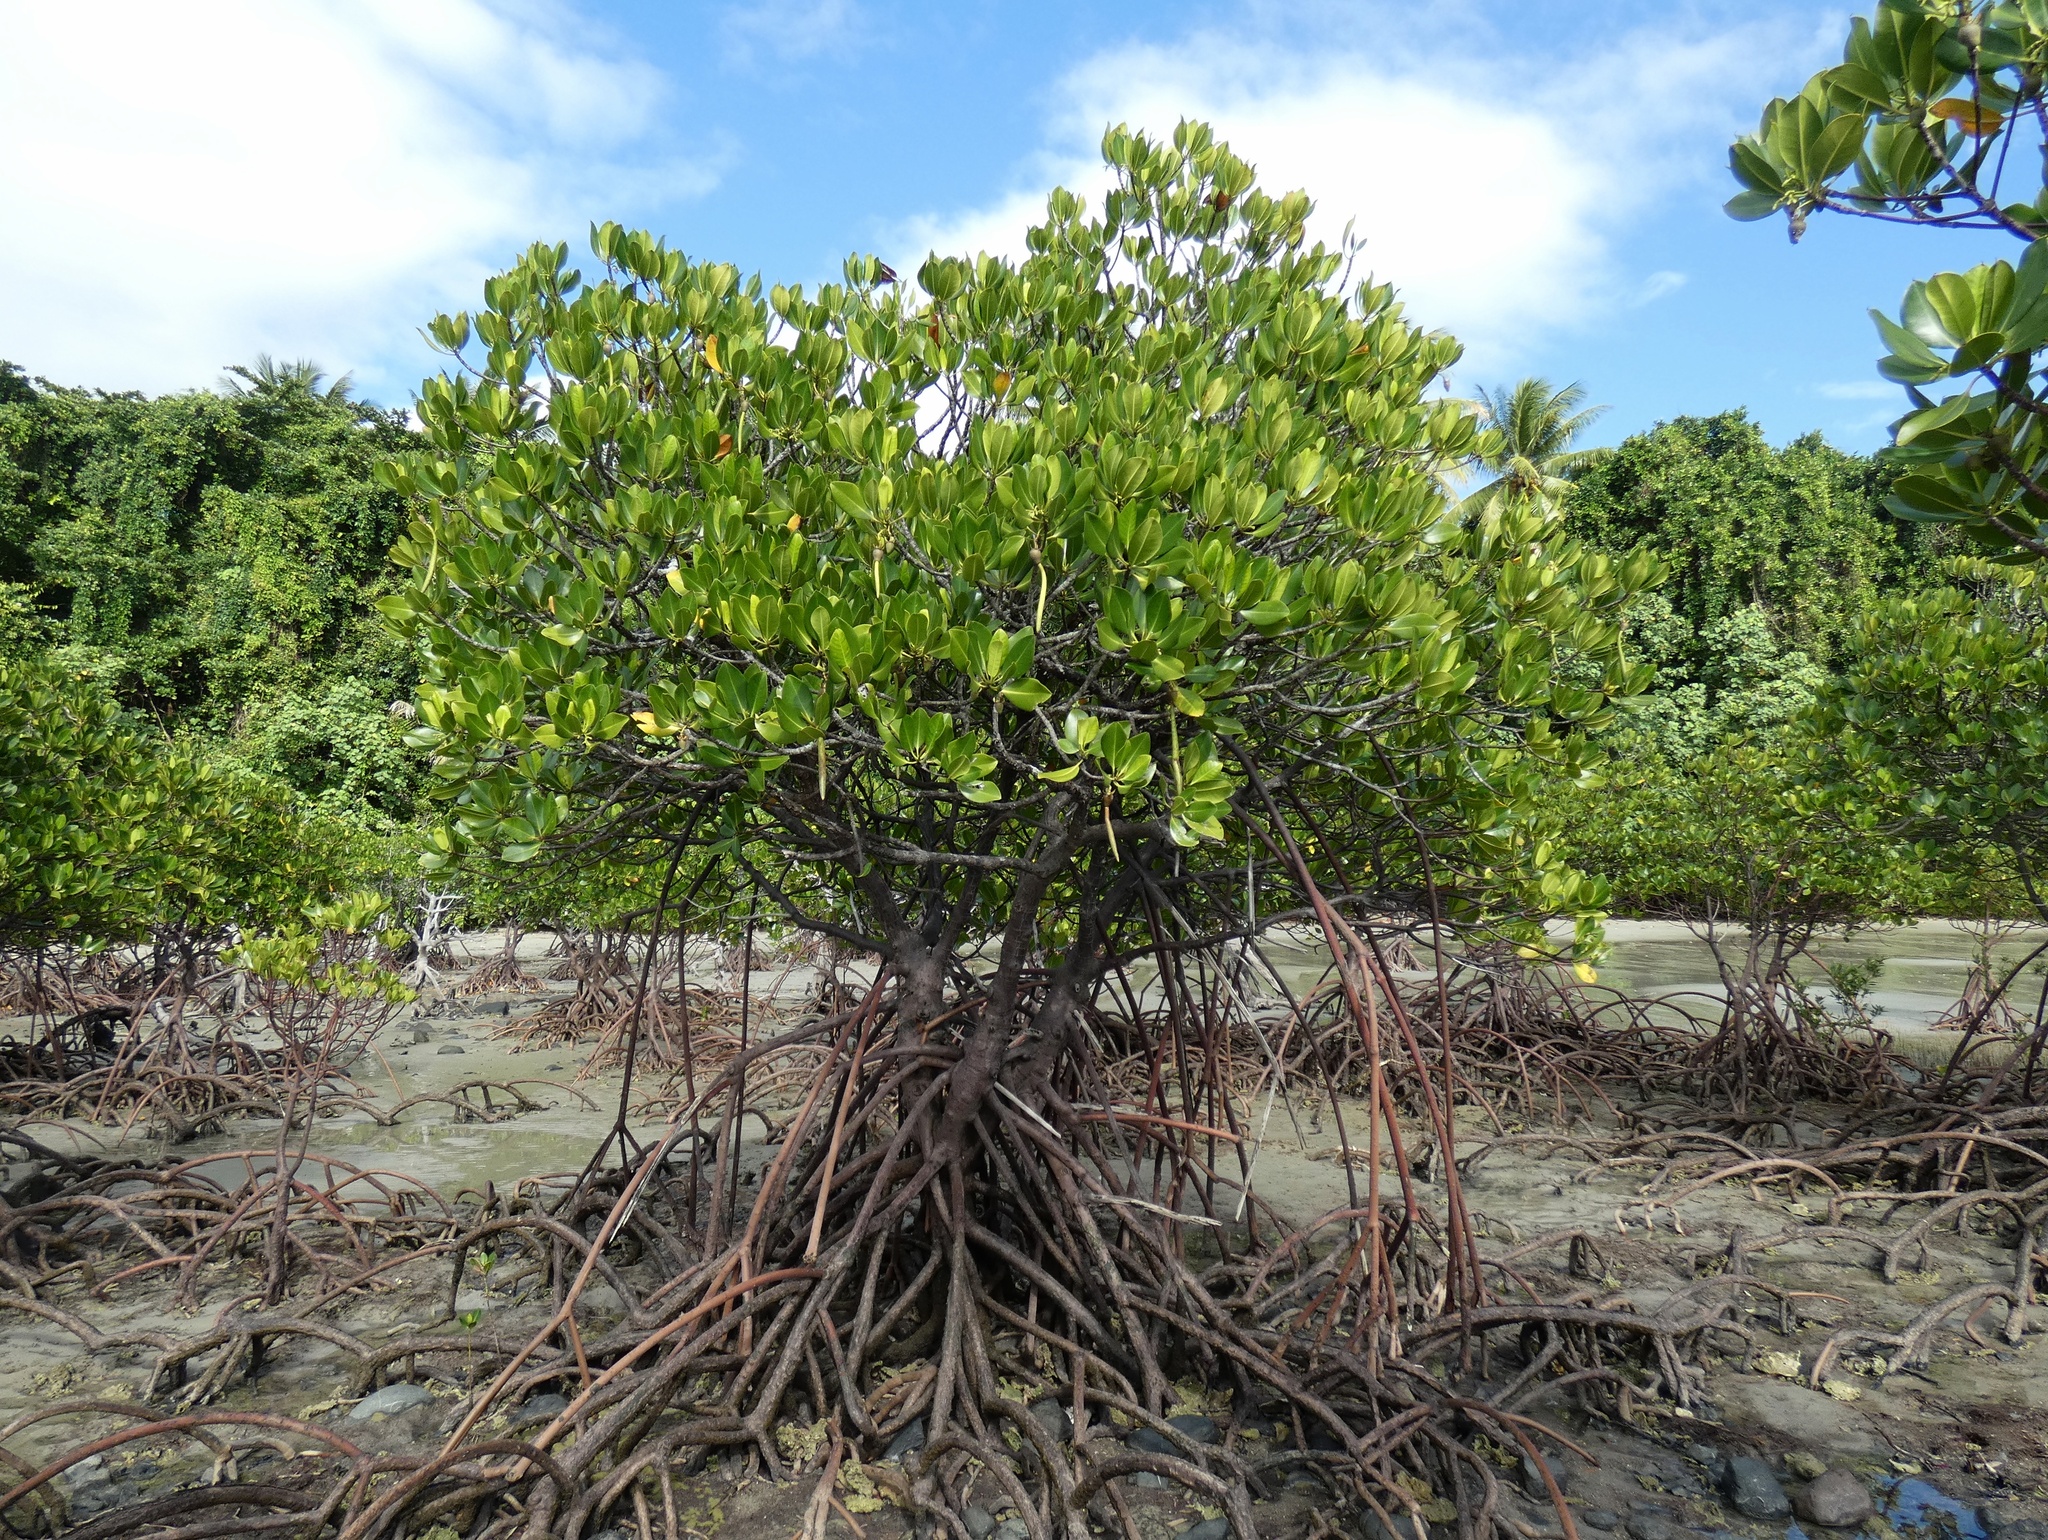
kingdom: Plantae
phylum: Tracheophyta
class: Magnoliopsida
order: Malpighiales
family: Rhizophoraceae
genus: Rhizophora
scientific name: Rhizophora stylosa
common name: Red mangrove
